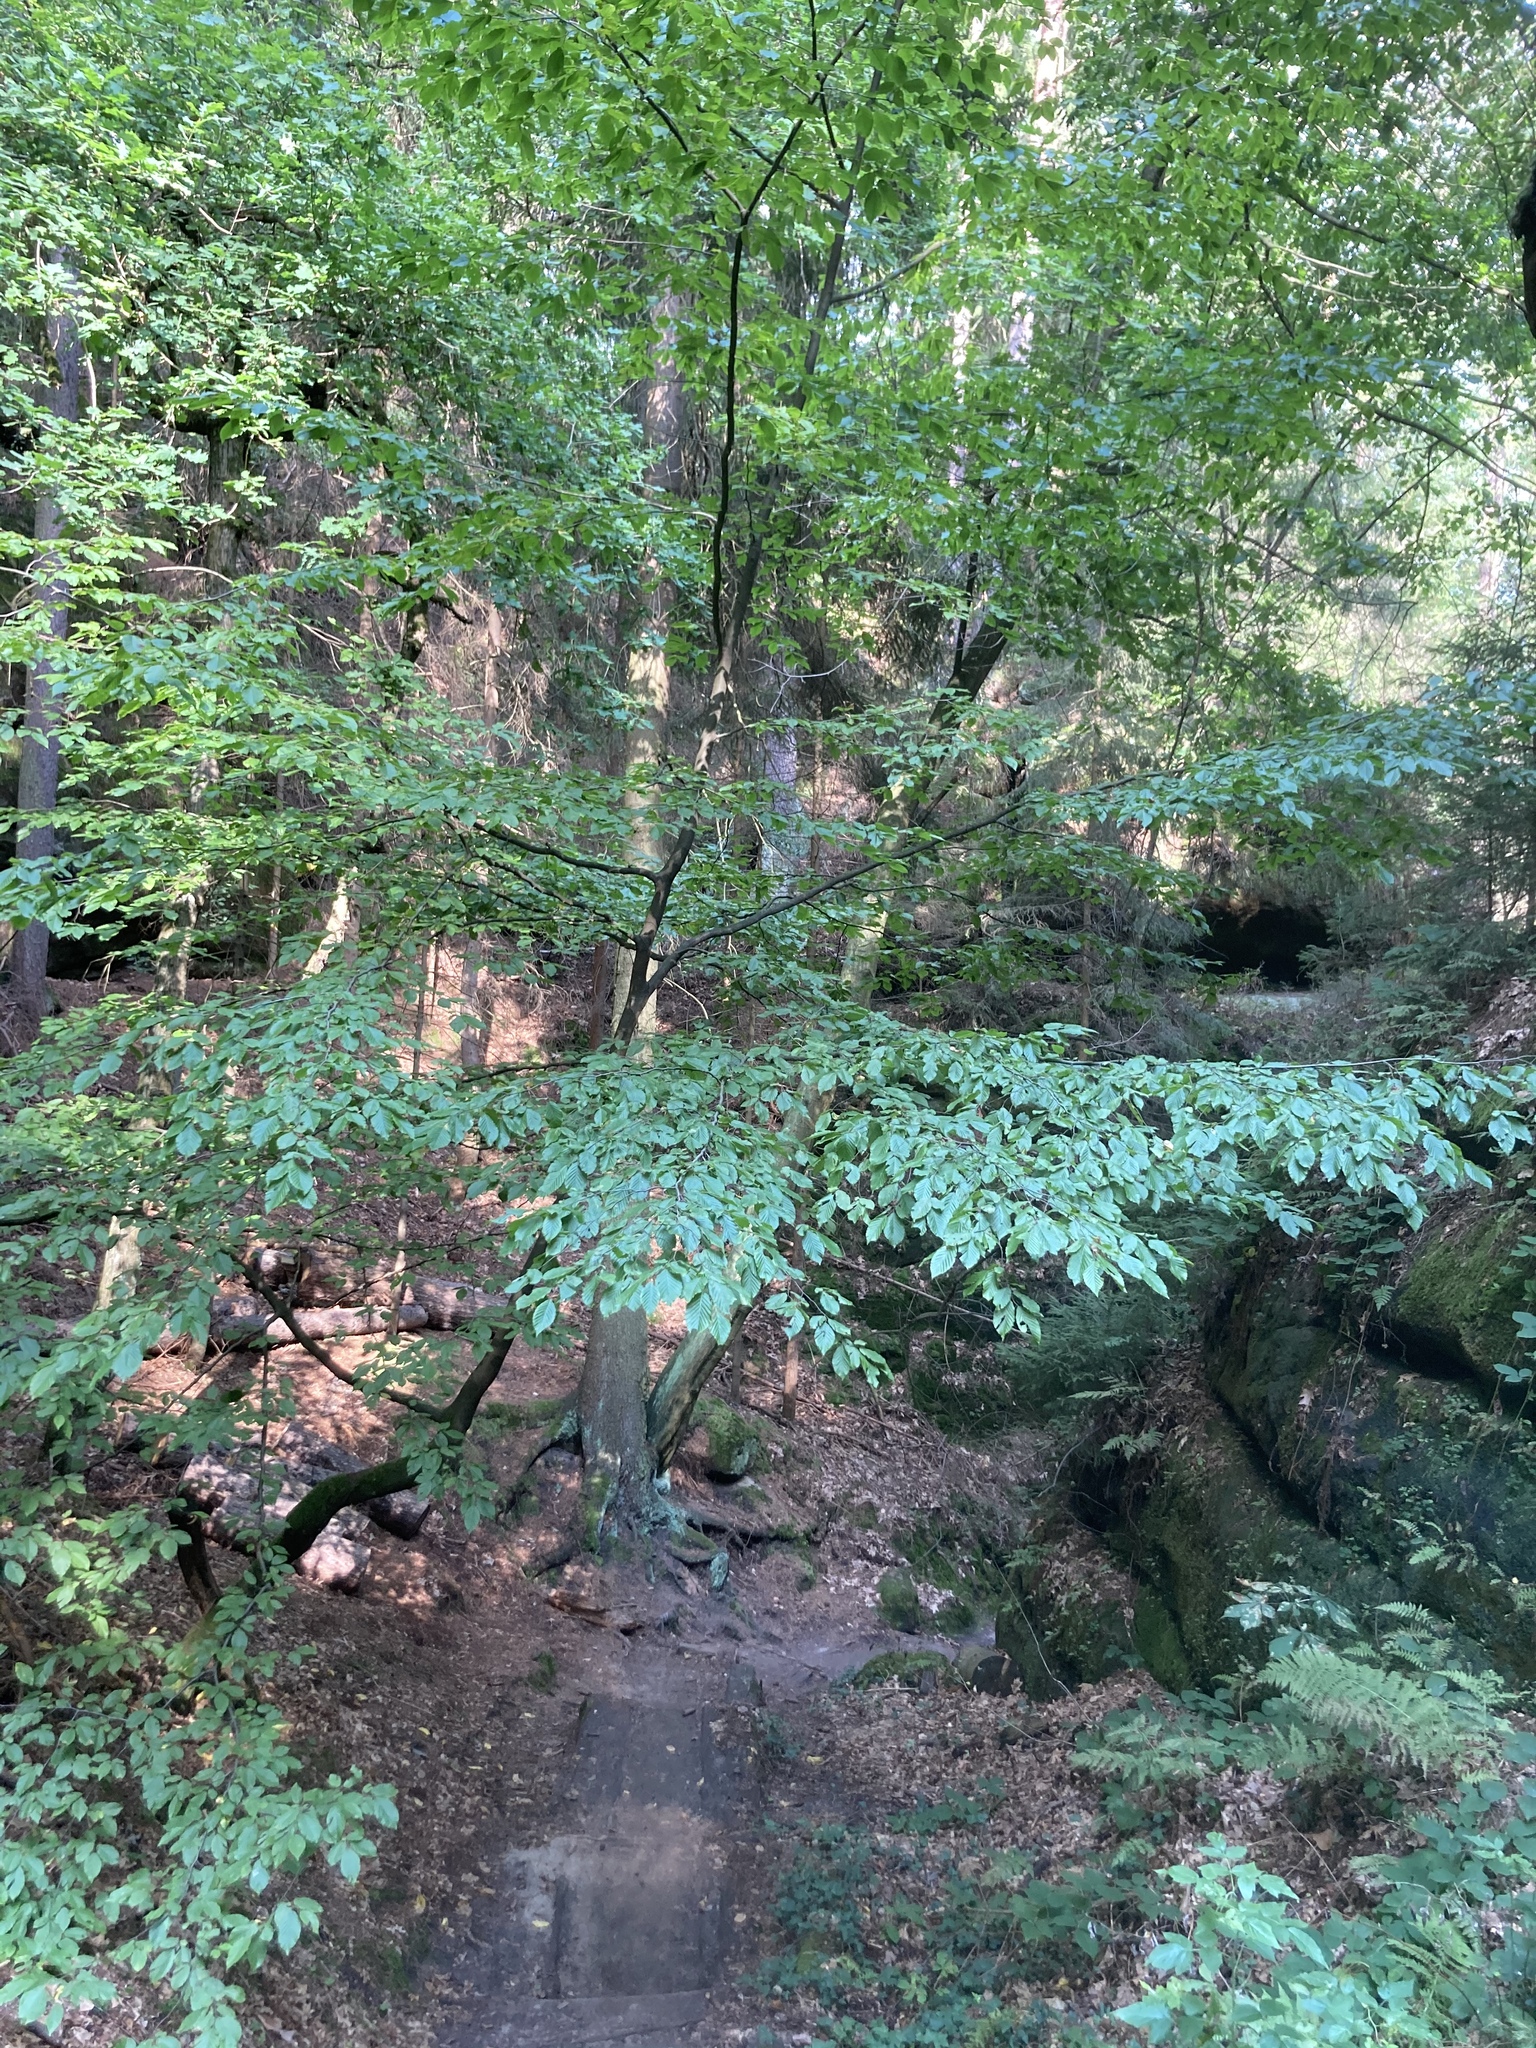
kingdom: Plantae
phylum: Tracheophyta
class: Magnoliopsida
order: Fagales
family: Fagaceae
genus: Fagus
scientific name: Fagus sylvatica
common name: Beech
